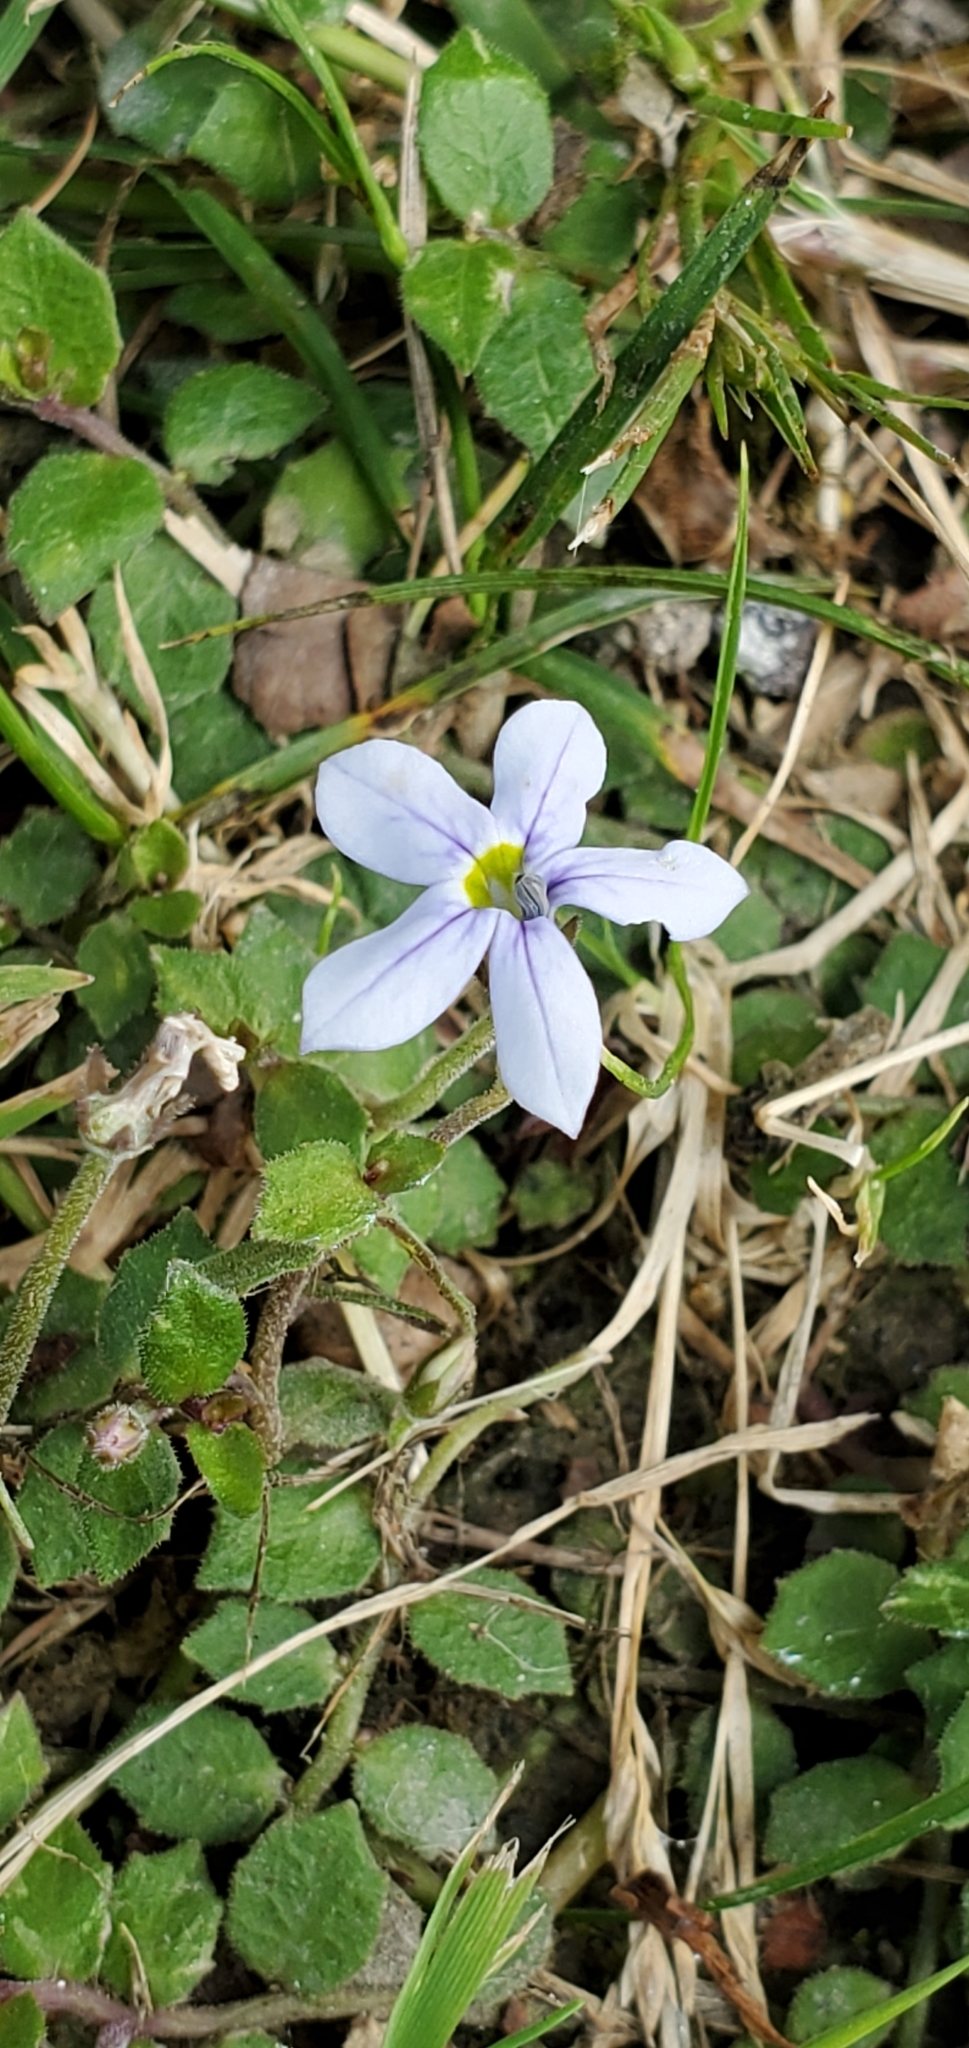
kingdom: Plantae
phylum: Tracheophyta
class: Magnoliopsida
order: Asterales
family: Campanulaceae
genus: Lobelia
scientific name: Lobelia pedunculata
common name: Matted pratia
